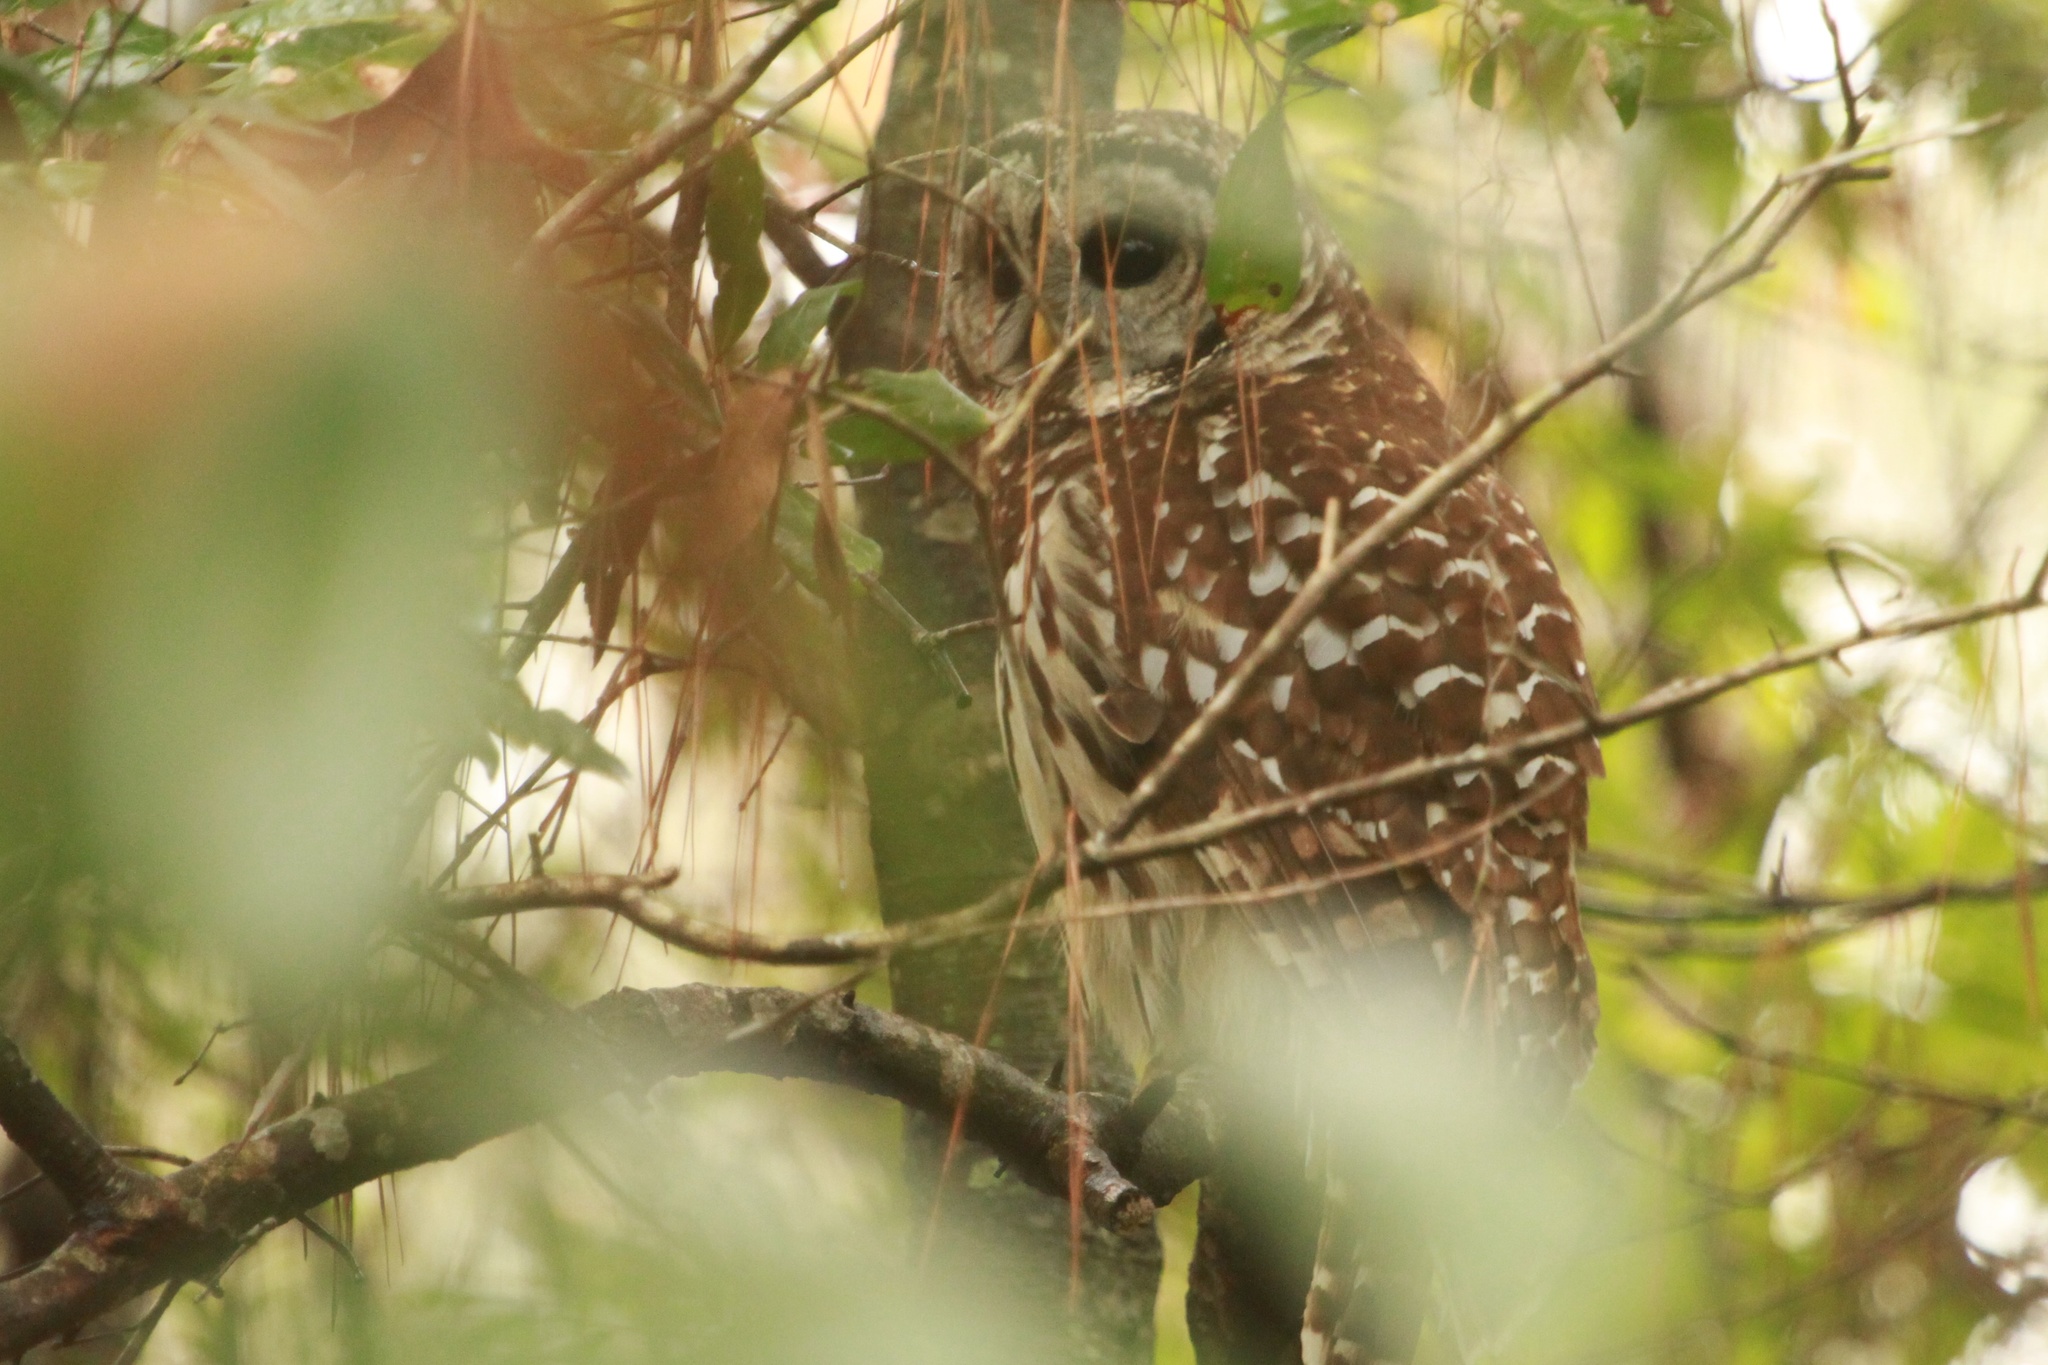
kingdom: Animalia
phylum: Chordata
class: Aves
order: Strigiformes
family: Strigidae
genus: Strix
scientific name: Strix varia
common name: Barred owl
